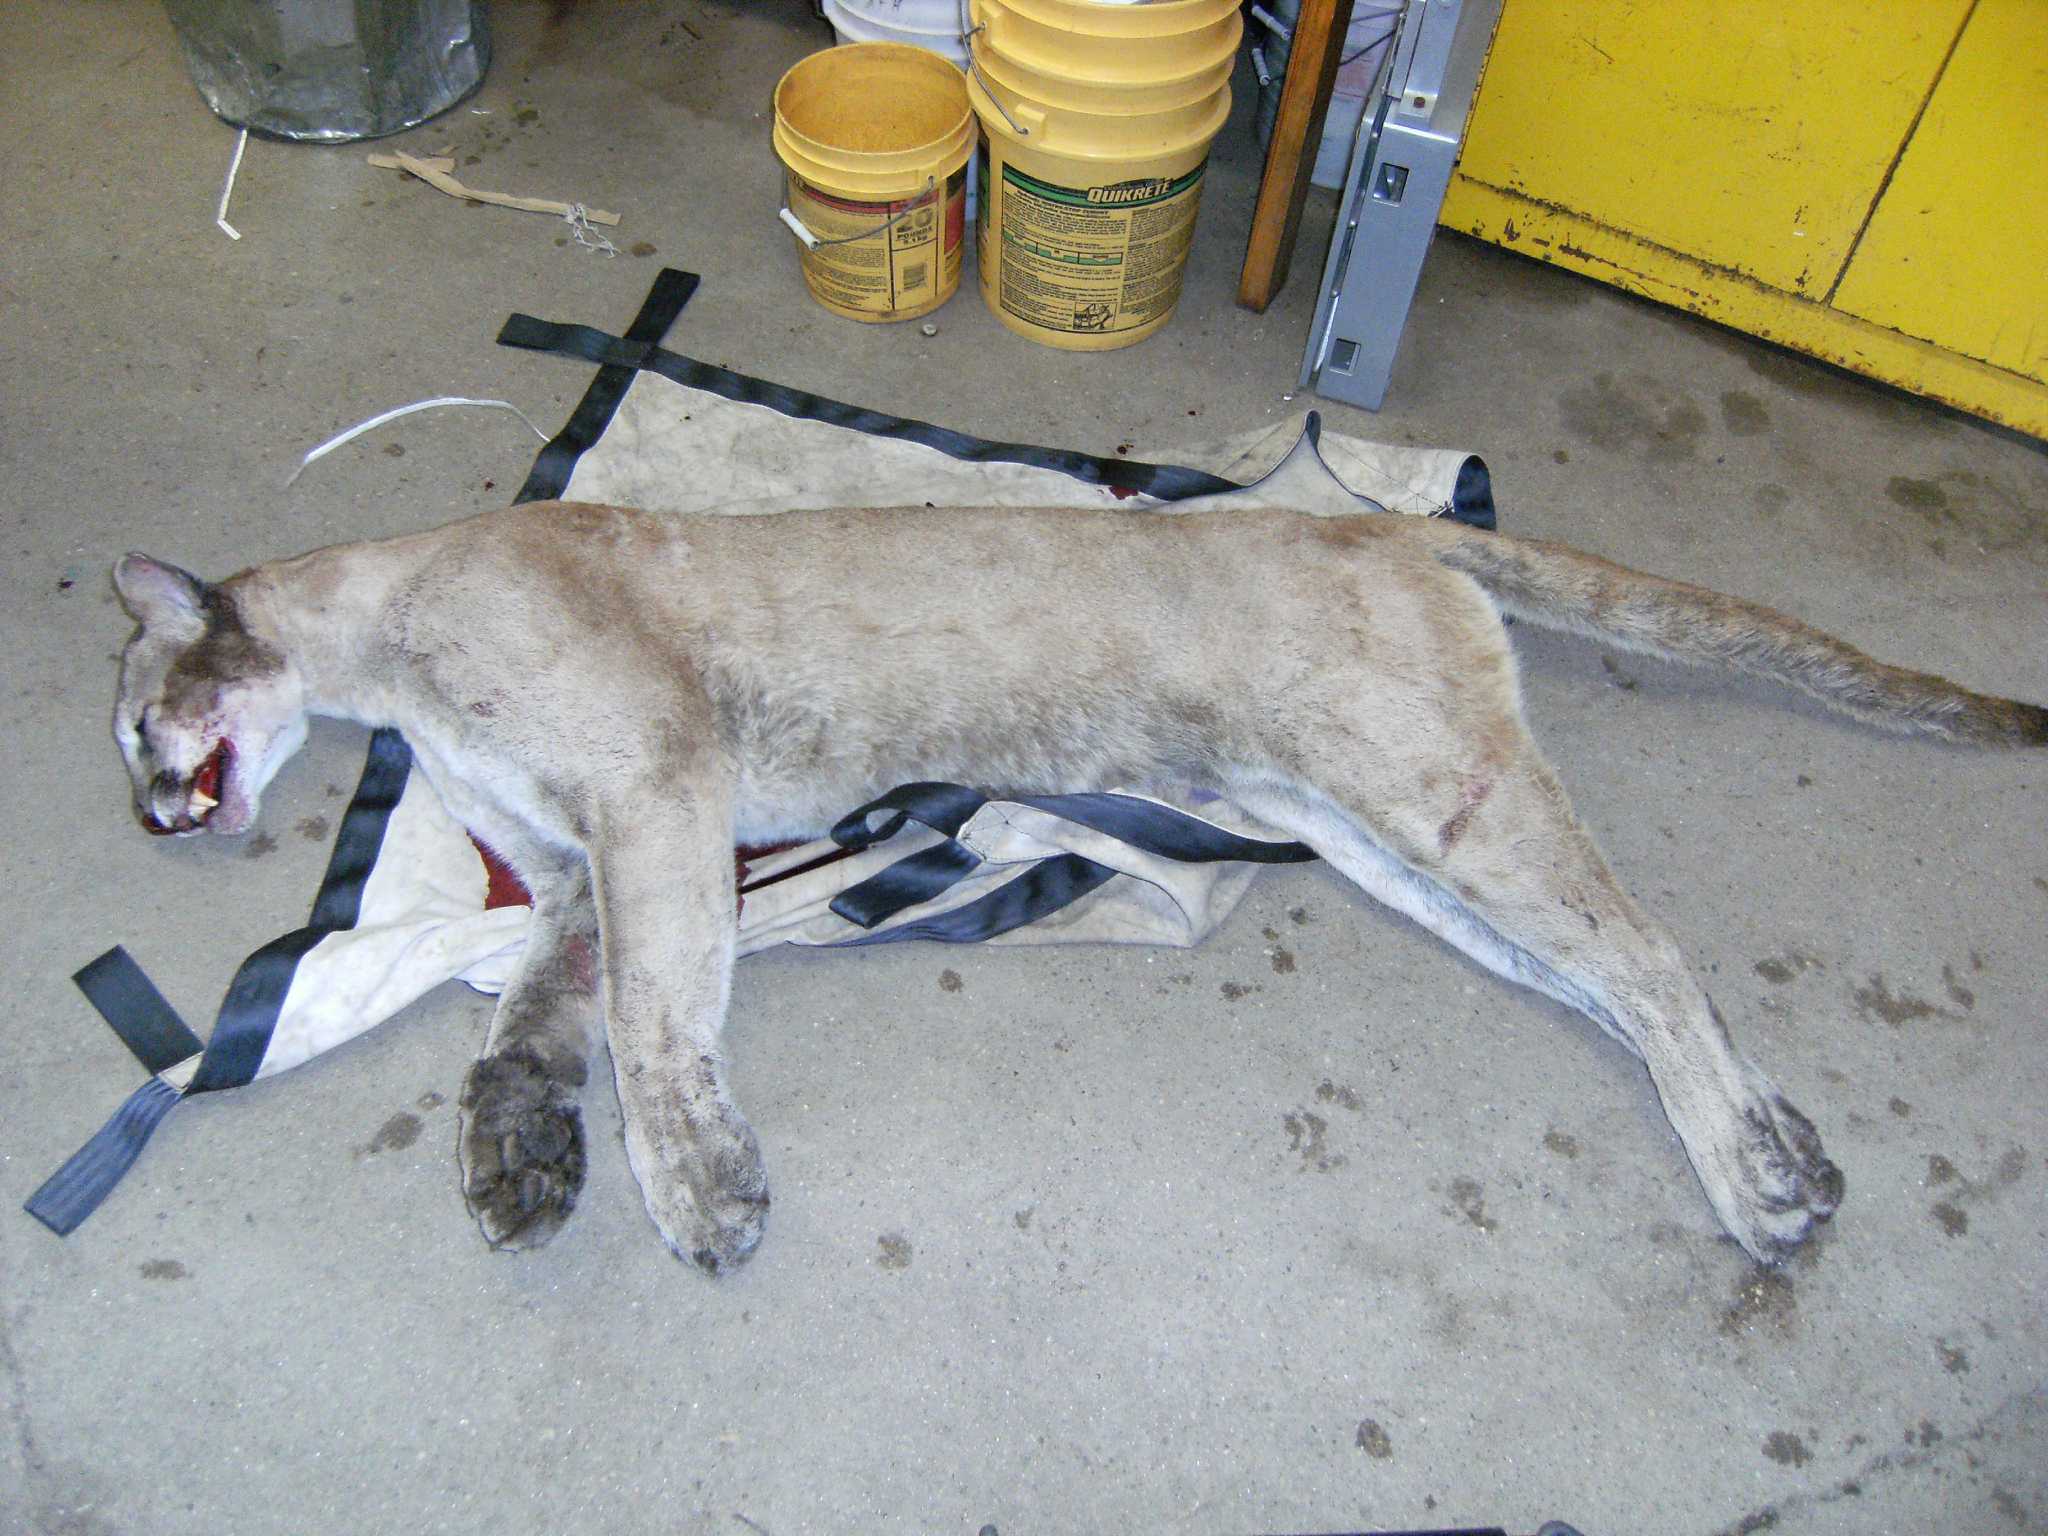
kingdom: Animalia
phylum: Chordata
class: Mammalia
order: Carnivora
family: Felidae
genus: Puma
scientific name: Puma concolor
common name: Puma
